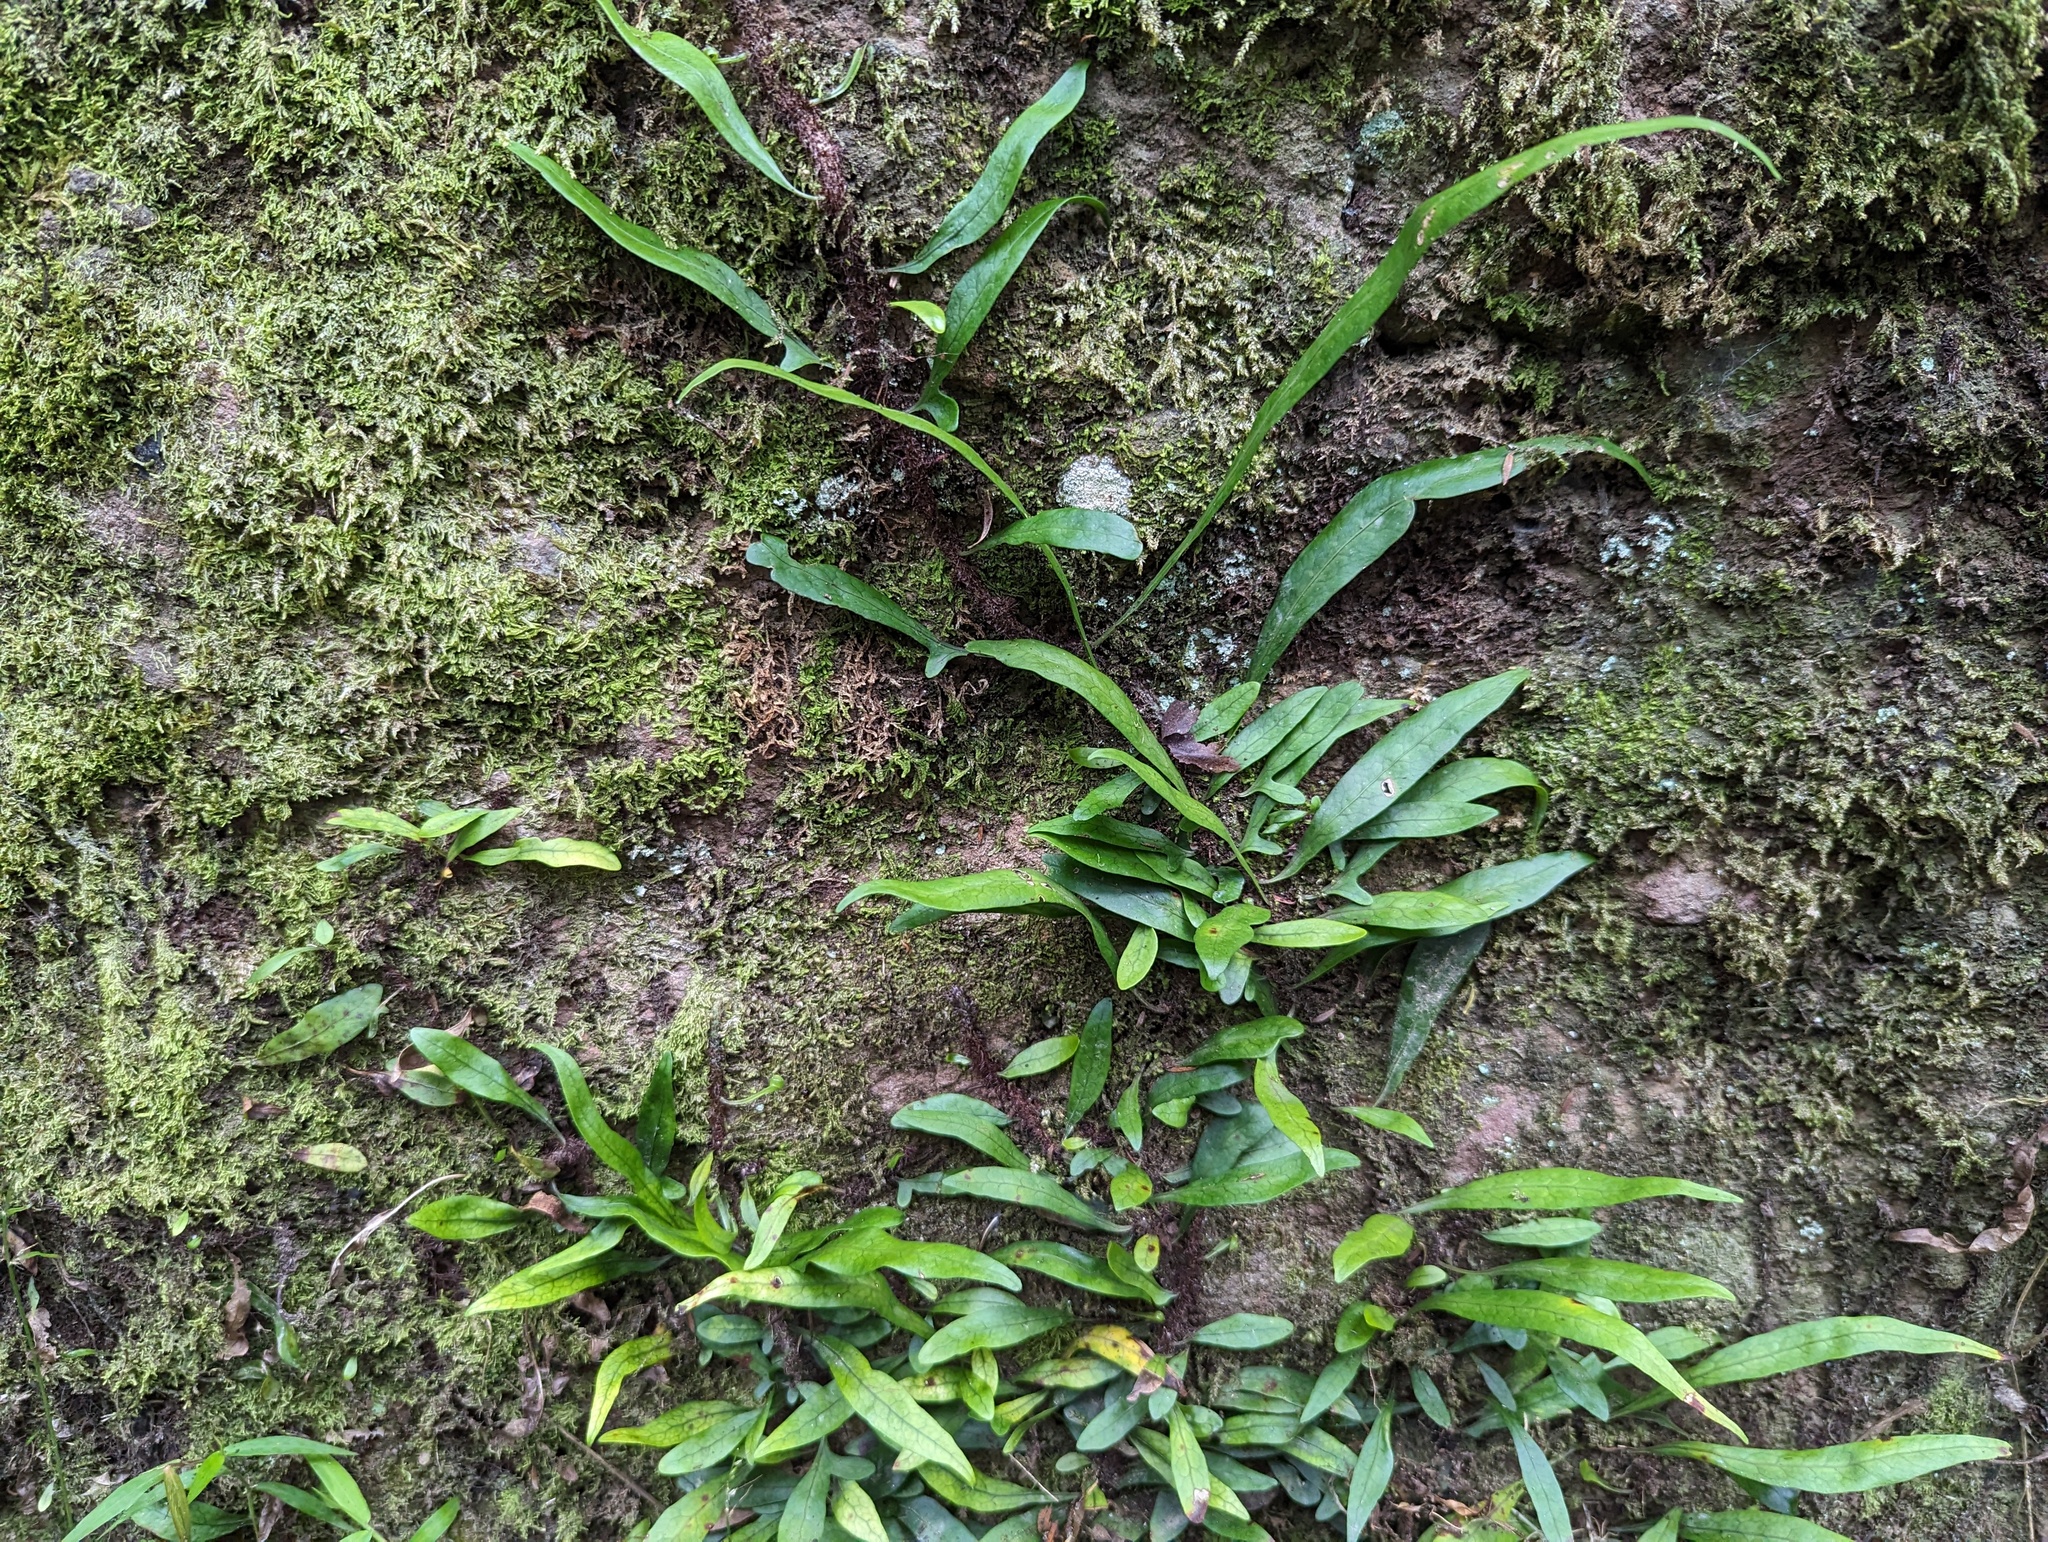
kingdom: Plantae
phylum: Tracheophyta
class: Polypodiopsida
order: Polypodiales
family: Polypodiaceae
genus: Lecanopteris
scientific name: Lecanopteris scandens
